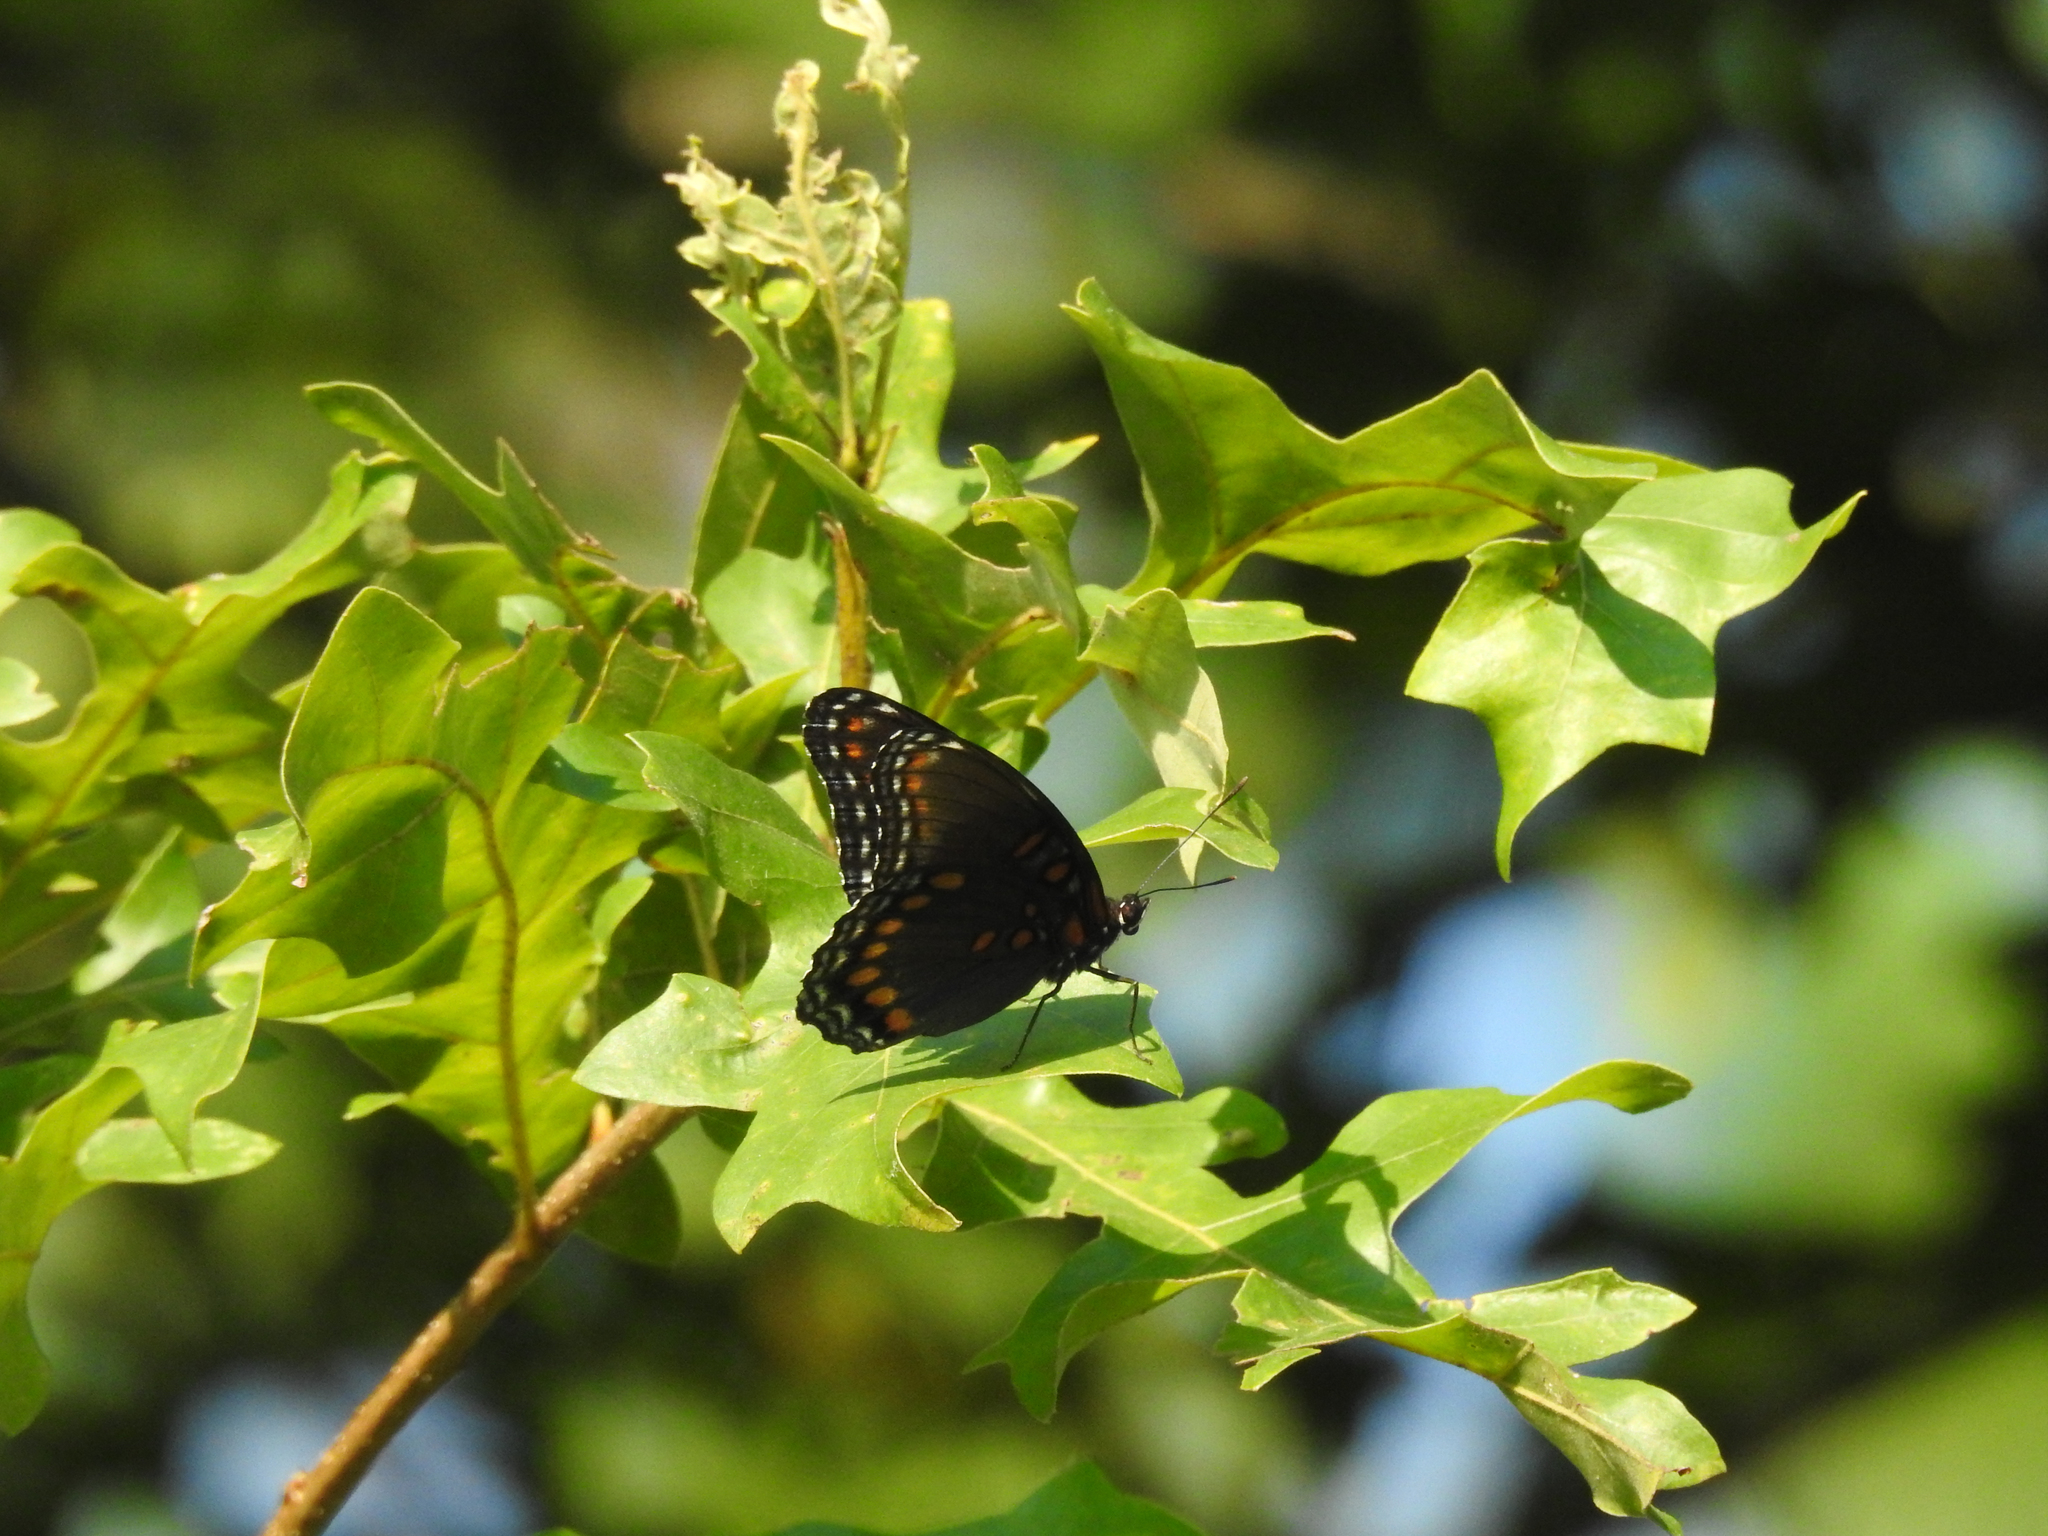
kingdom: Animalia
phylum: Arthropoda
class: Insecta
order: Lepidoptera
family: Nymphalidae
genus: Limenitis
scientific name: Limenitis astyanax
